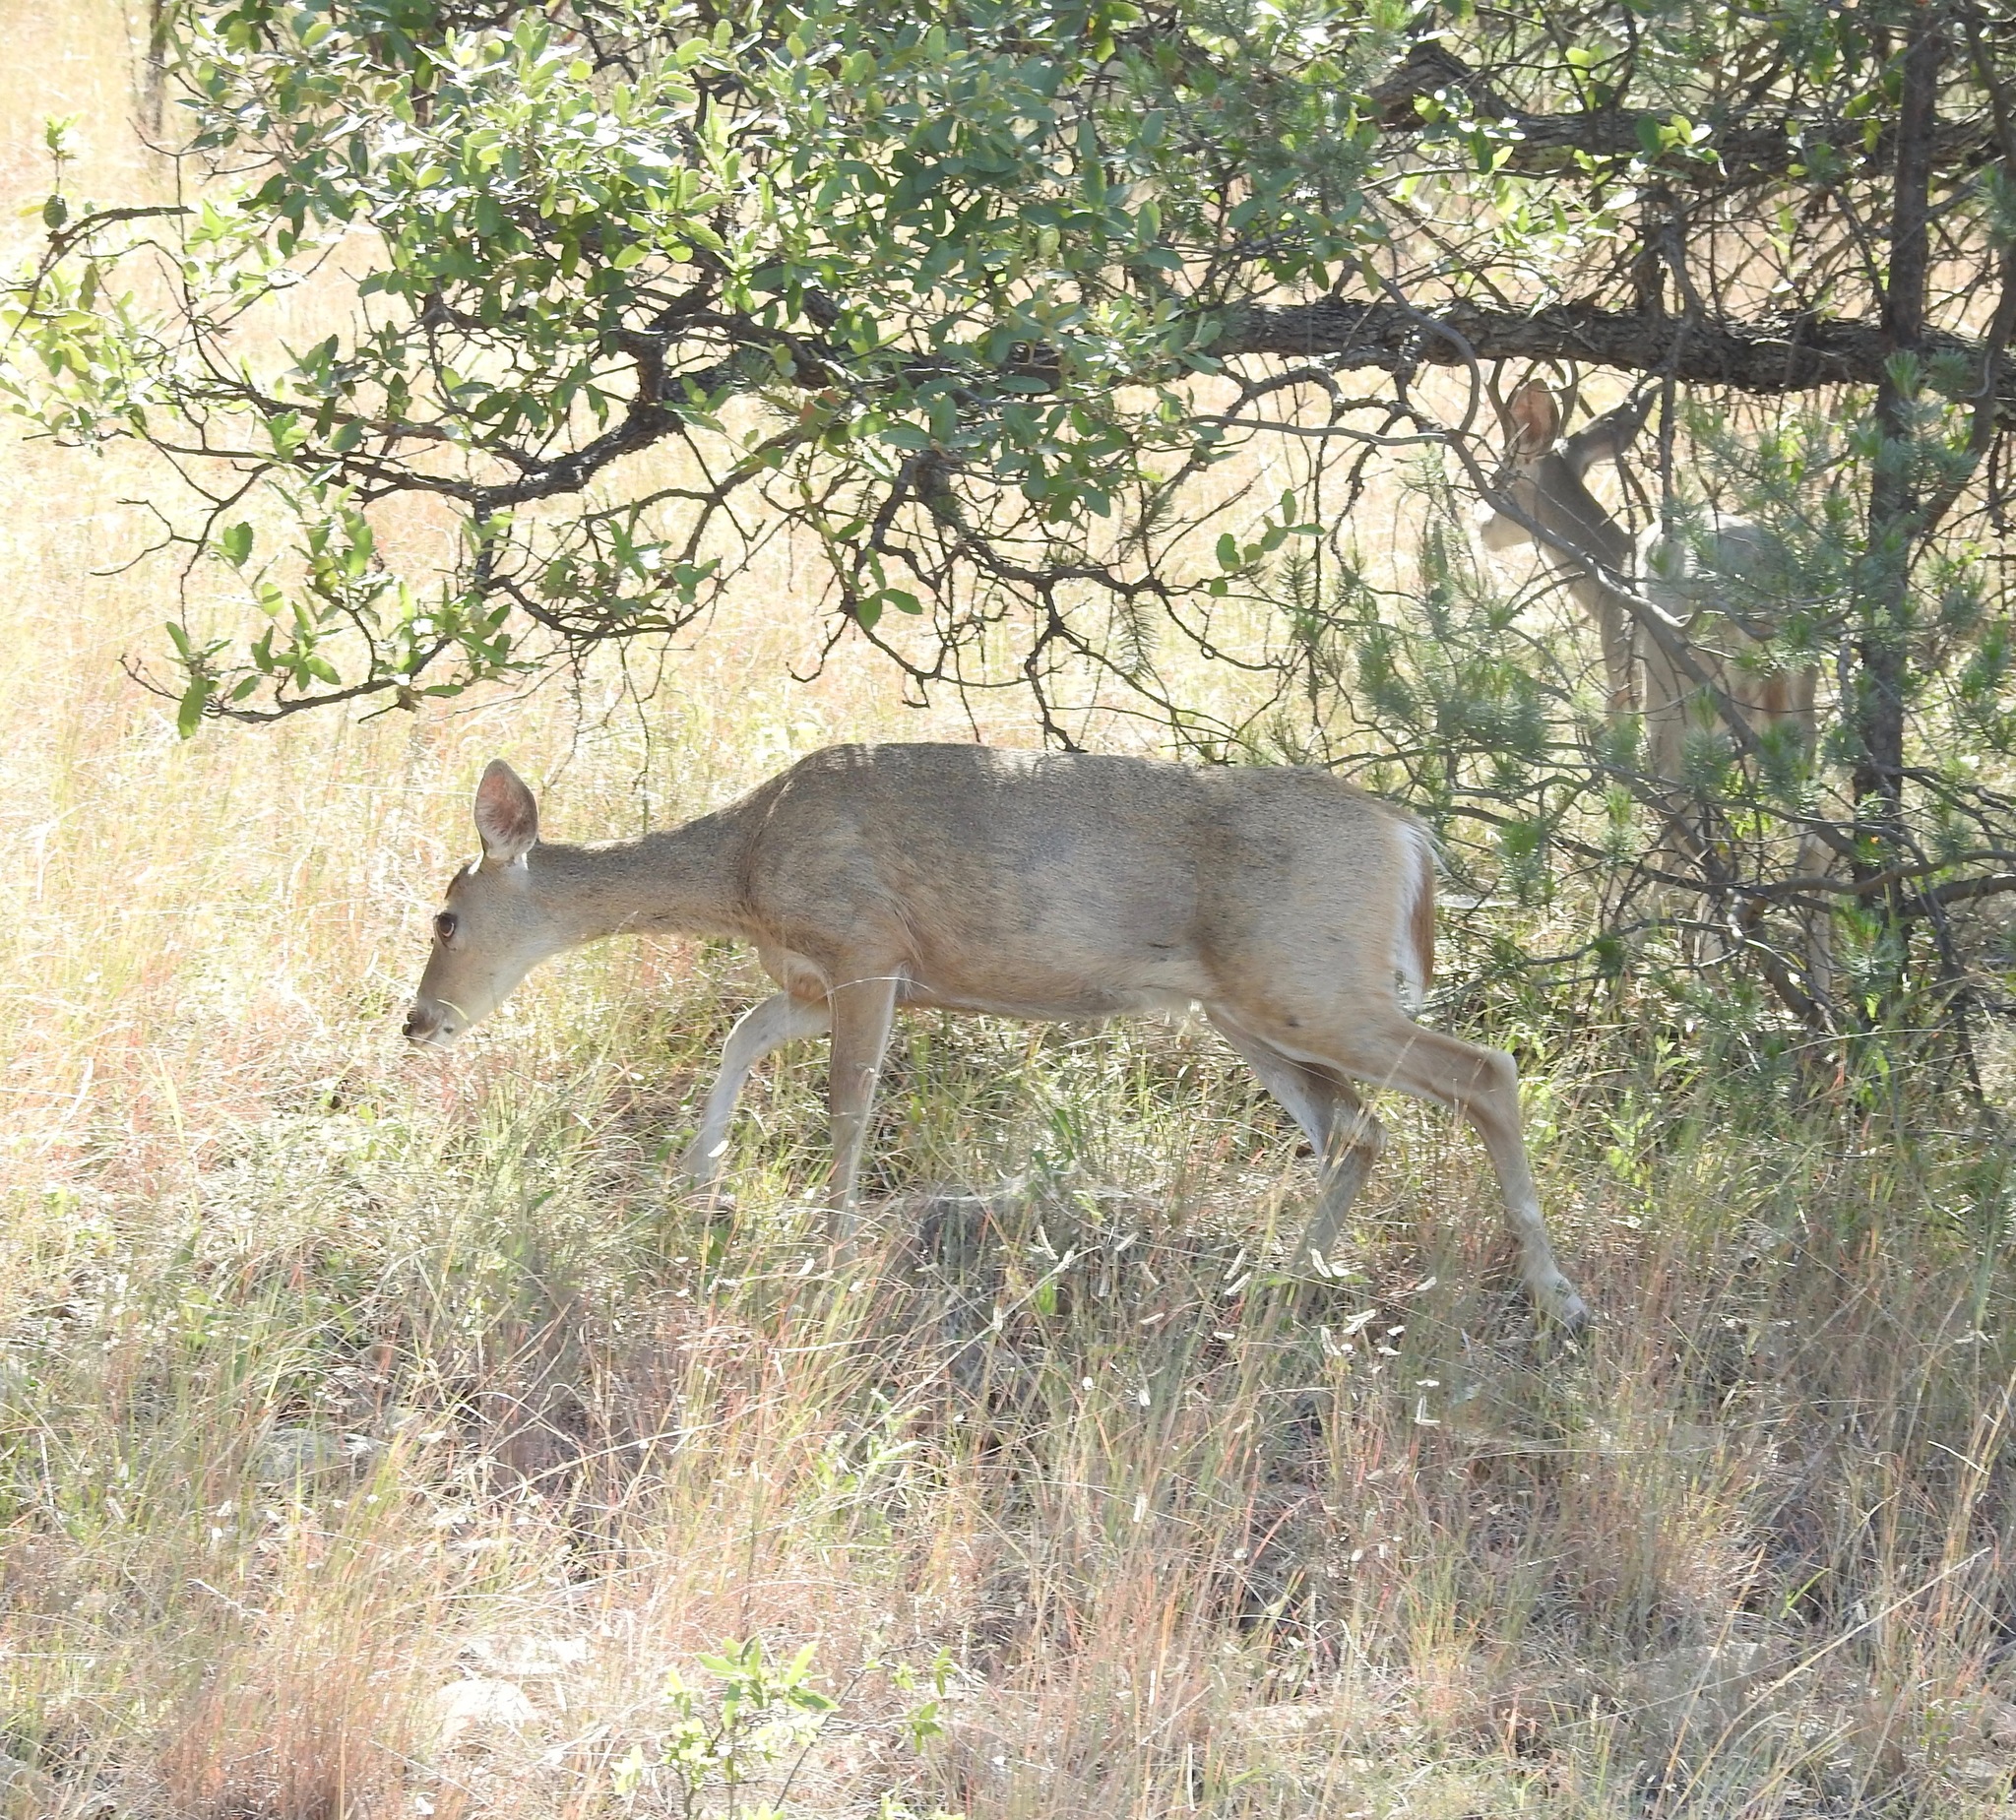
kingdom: Animalia
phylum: Chordata
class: Mammalia
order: Artiodactyla
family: Cervidae
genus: Odocoileus
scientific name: Odocoileus virginianus
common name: White-tailed deer
